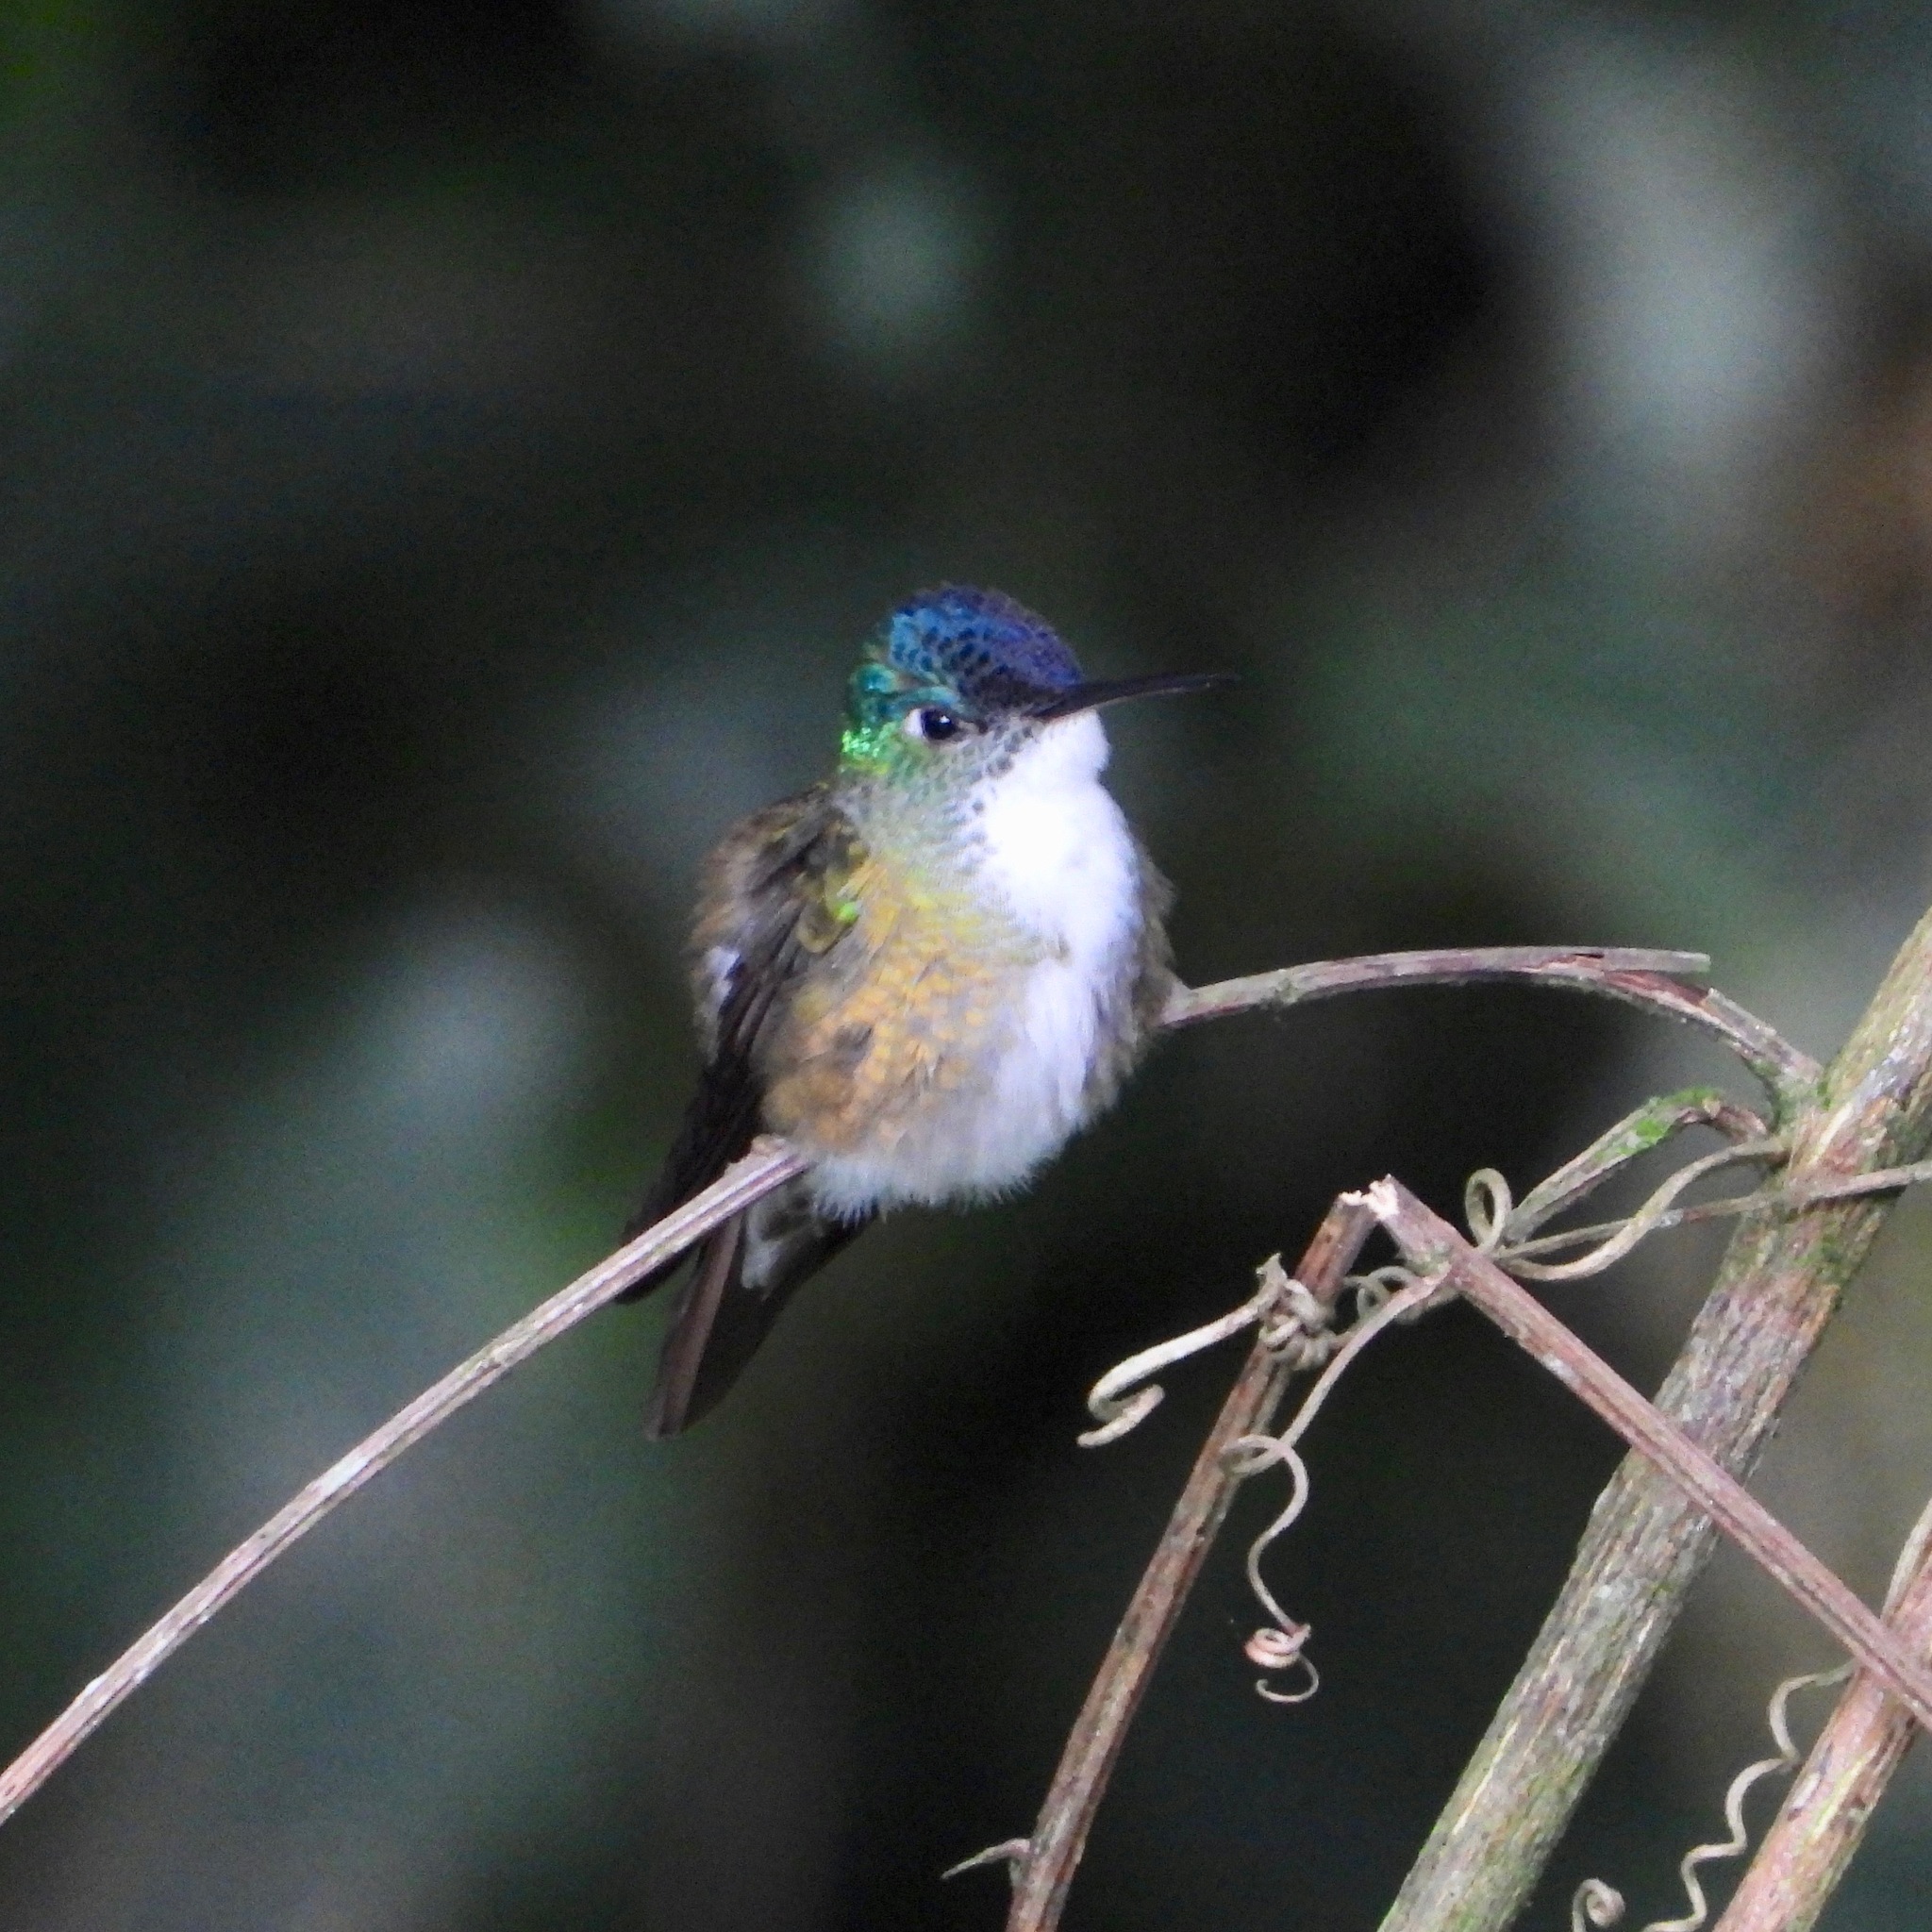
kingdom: Animalia
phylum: Chordata
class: Aves
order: Apodiformes
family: Trochilidae
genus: Saucerottia
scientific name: Saucerottia cyanocephala
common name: Azure-crowned hummingbird
